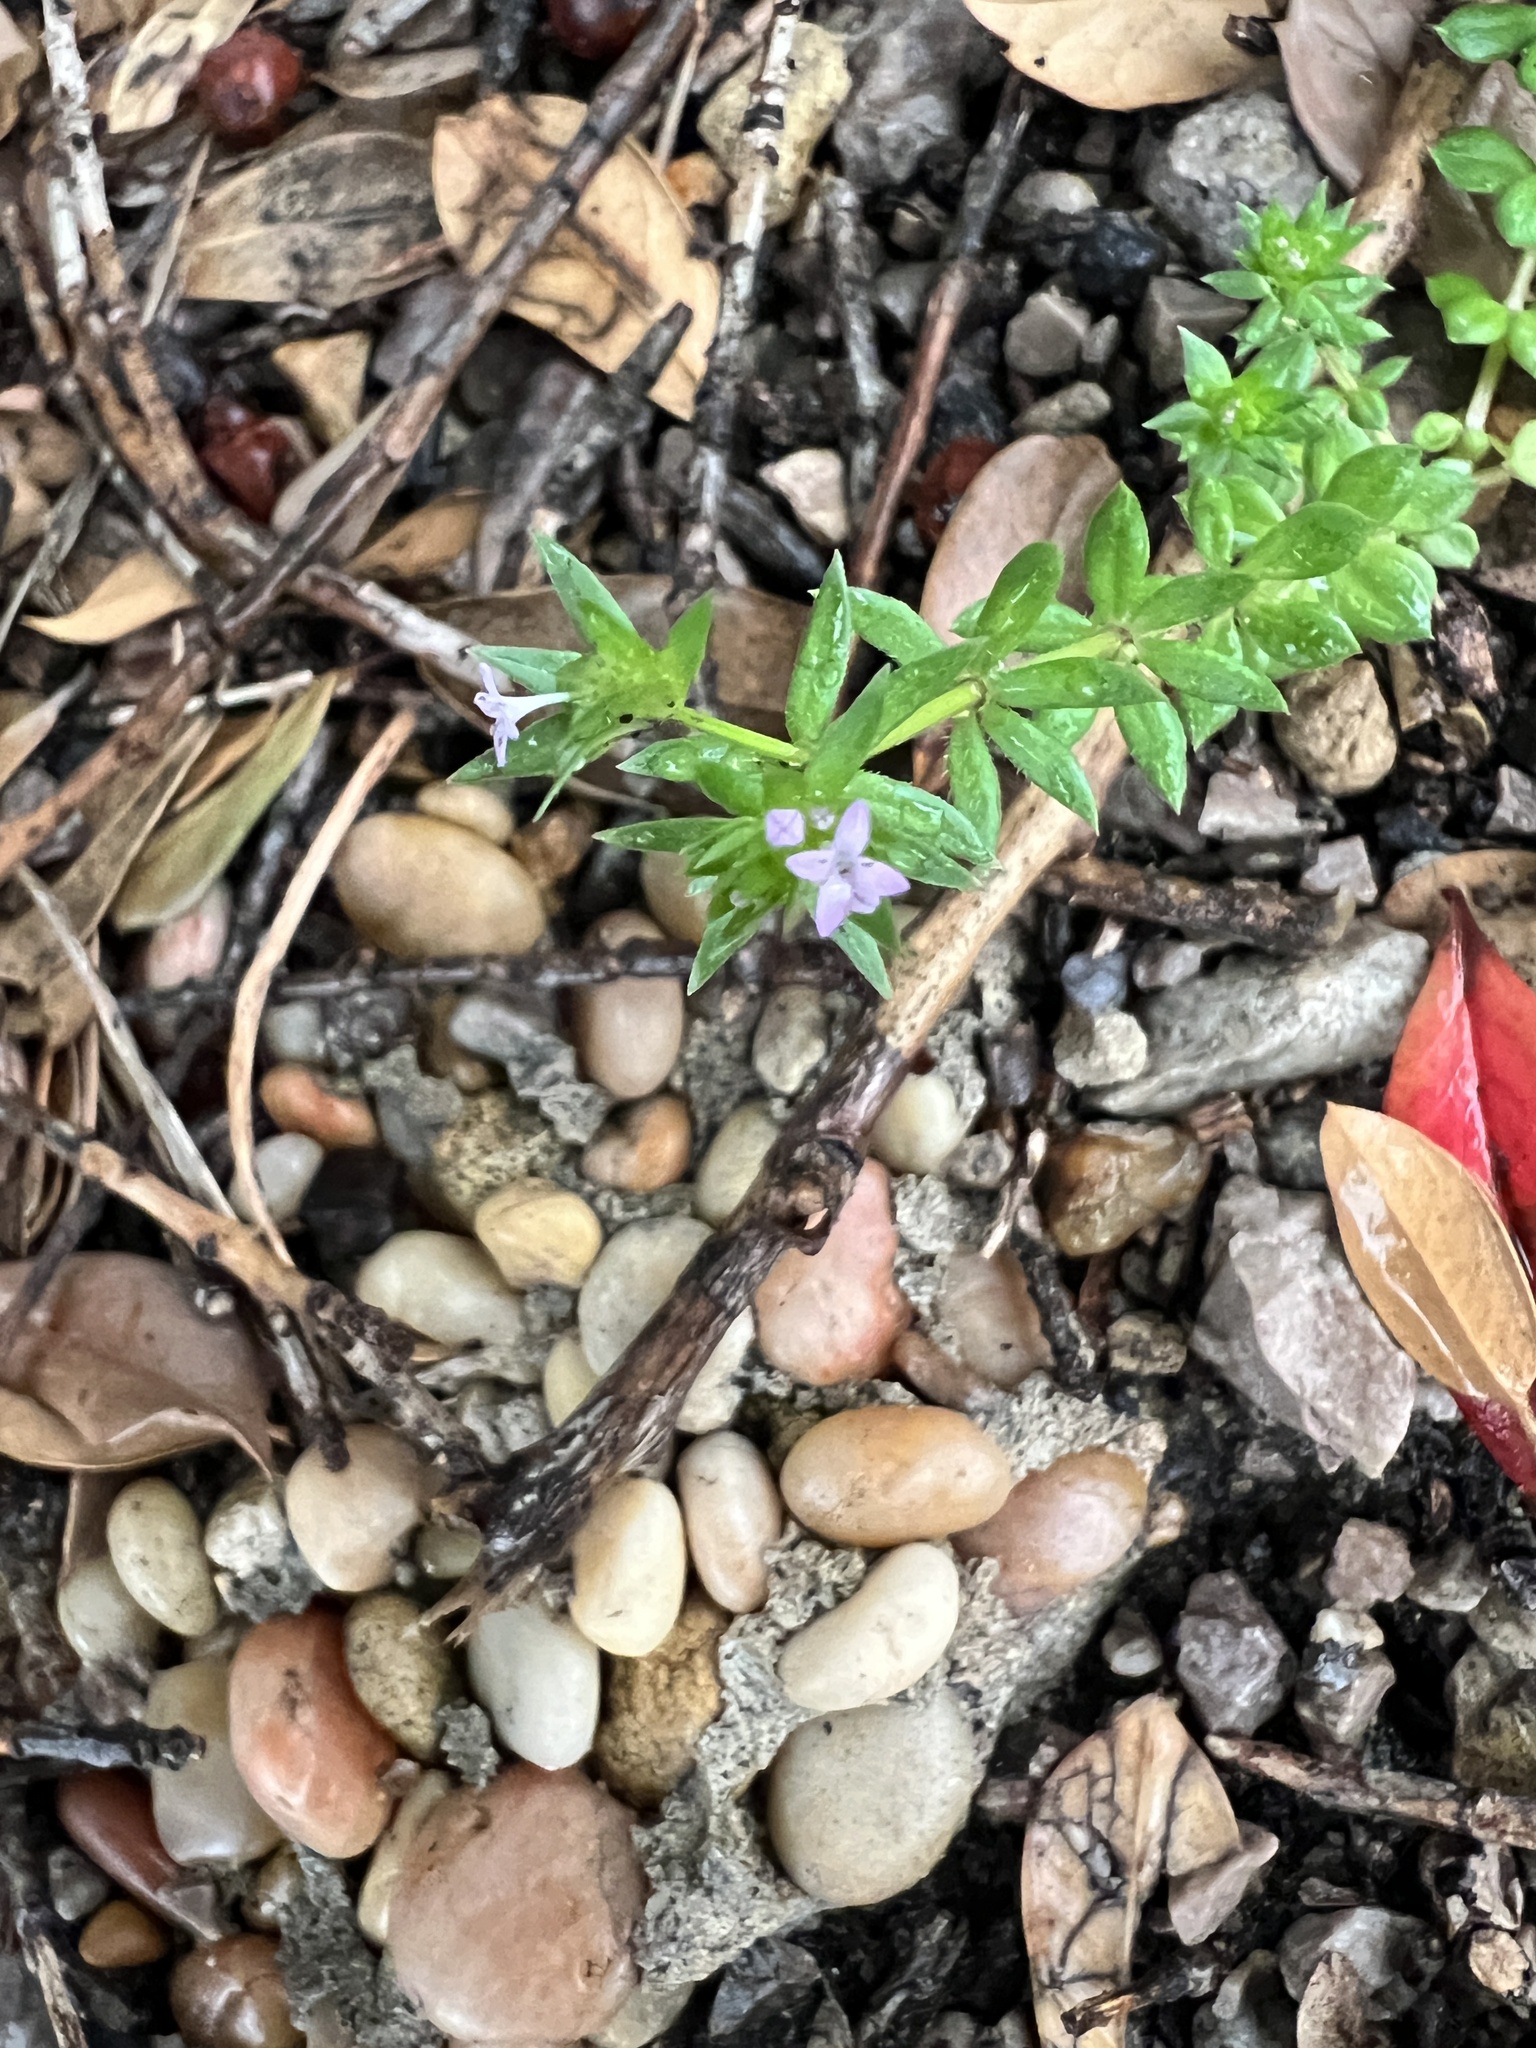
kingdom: Plantae
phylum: Tracheophyta
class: Magnoliopsida
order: Gentianales
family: Rubiaceae
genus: Sherardia
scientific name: Sherardia arvensis
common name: Field madder
